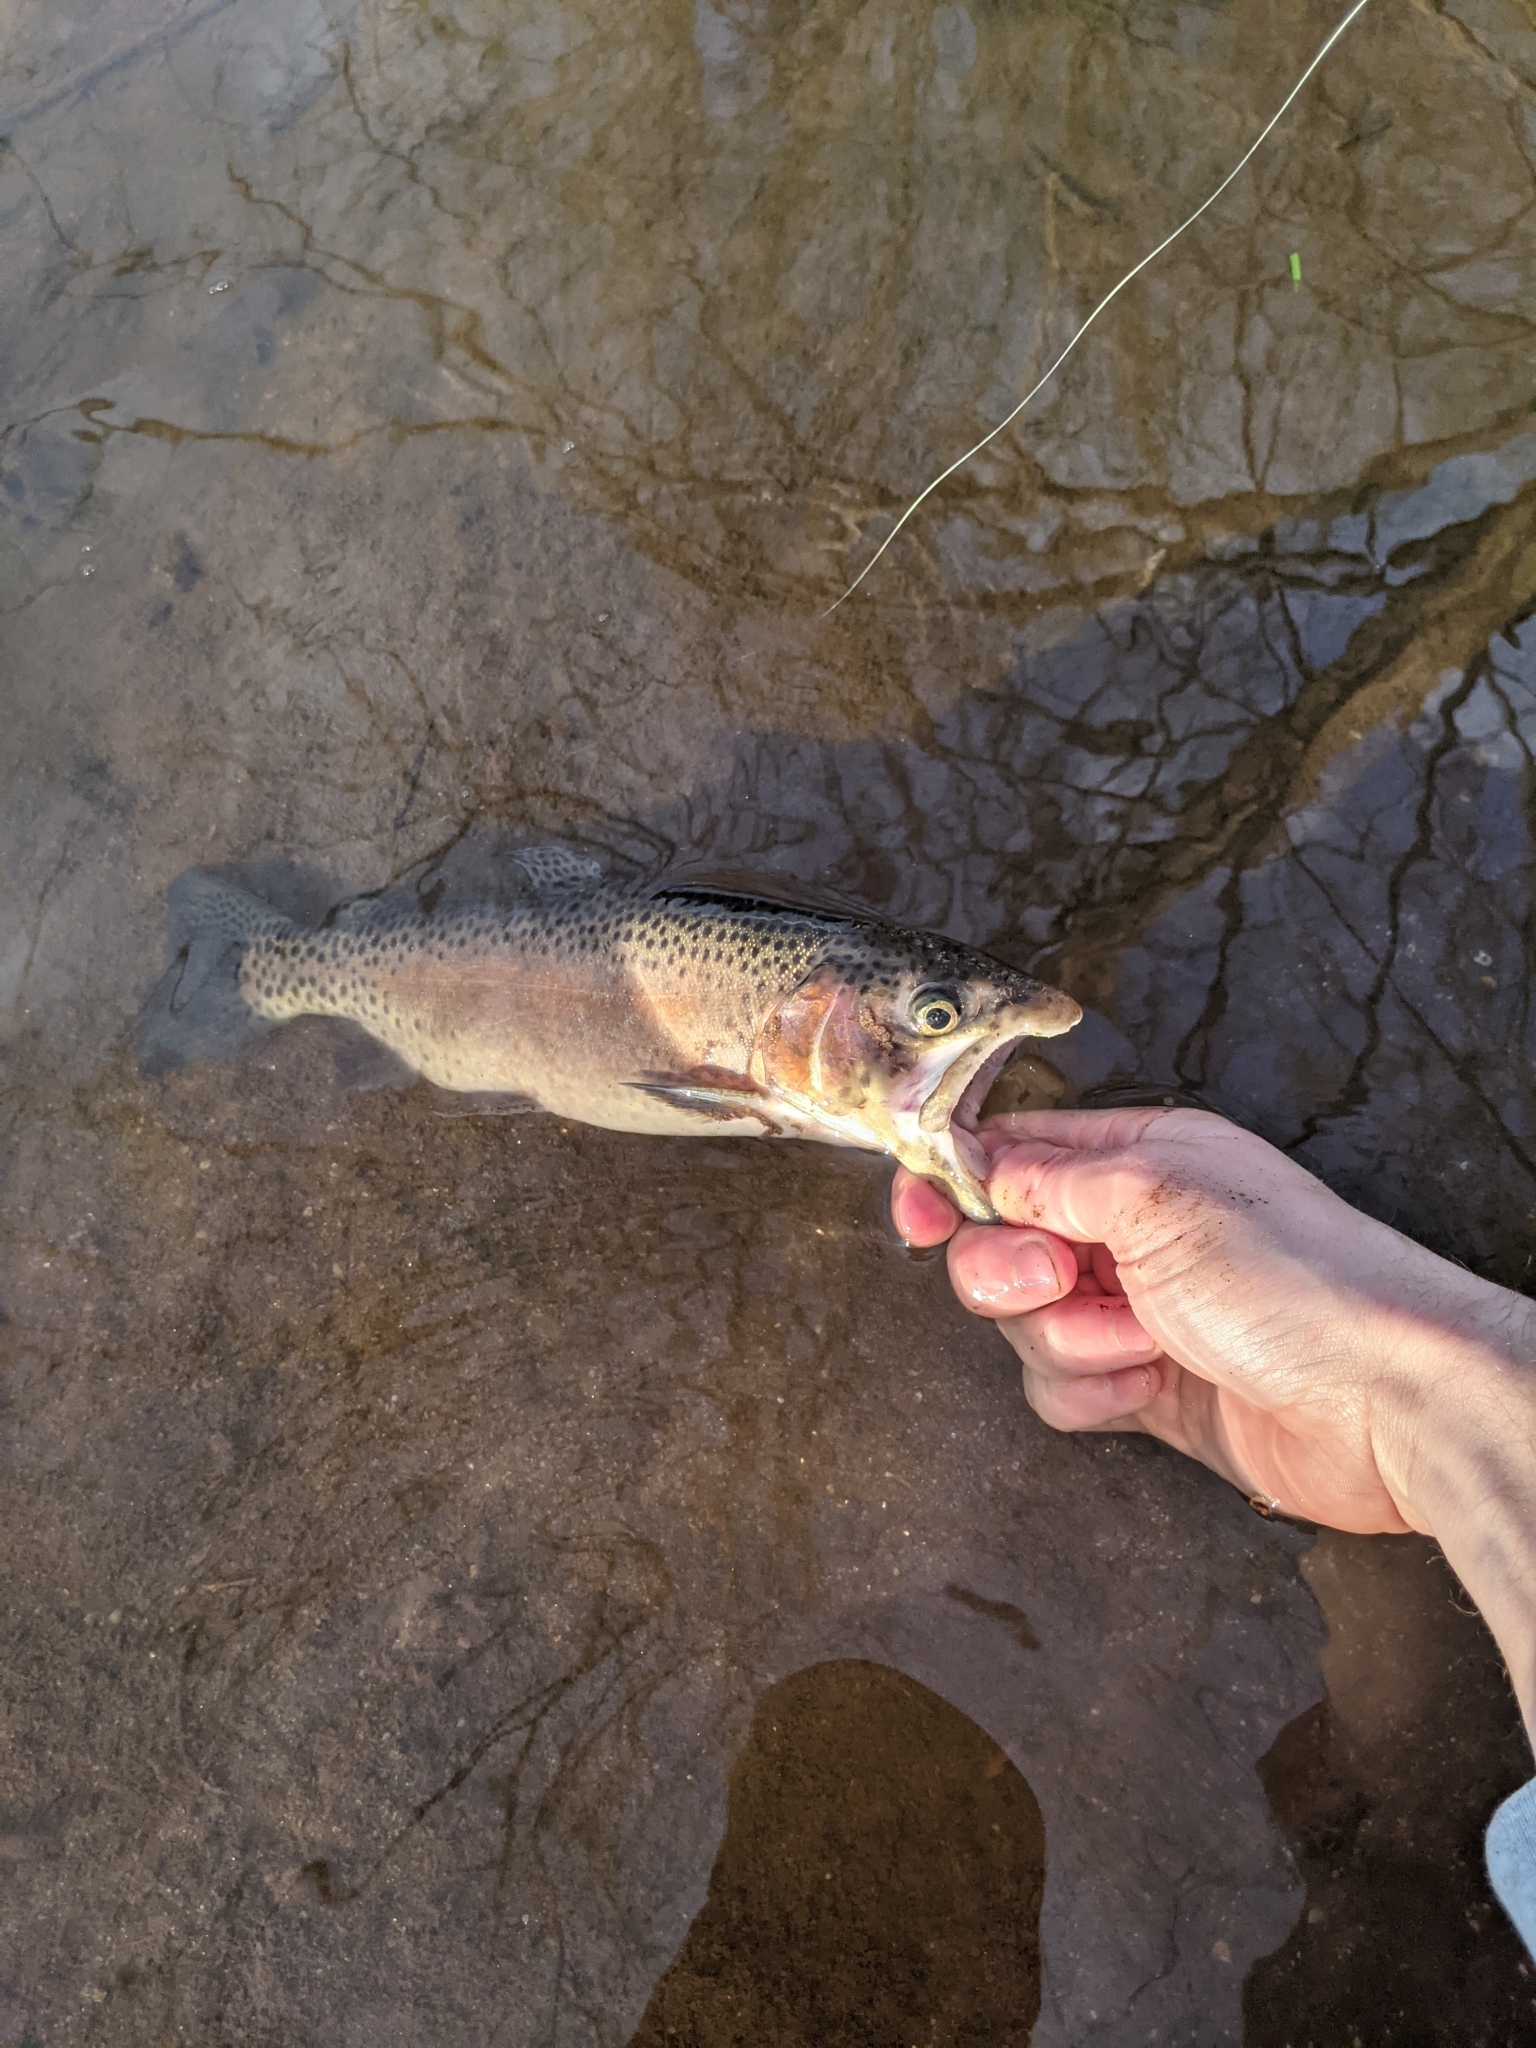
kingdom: Animalia
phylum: Chordata
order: Salmoniformes
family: Salmonidae
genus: Oncorhynchus
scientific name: Oncorhynchus mykiss
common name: Rainbow trout
